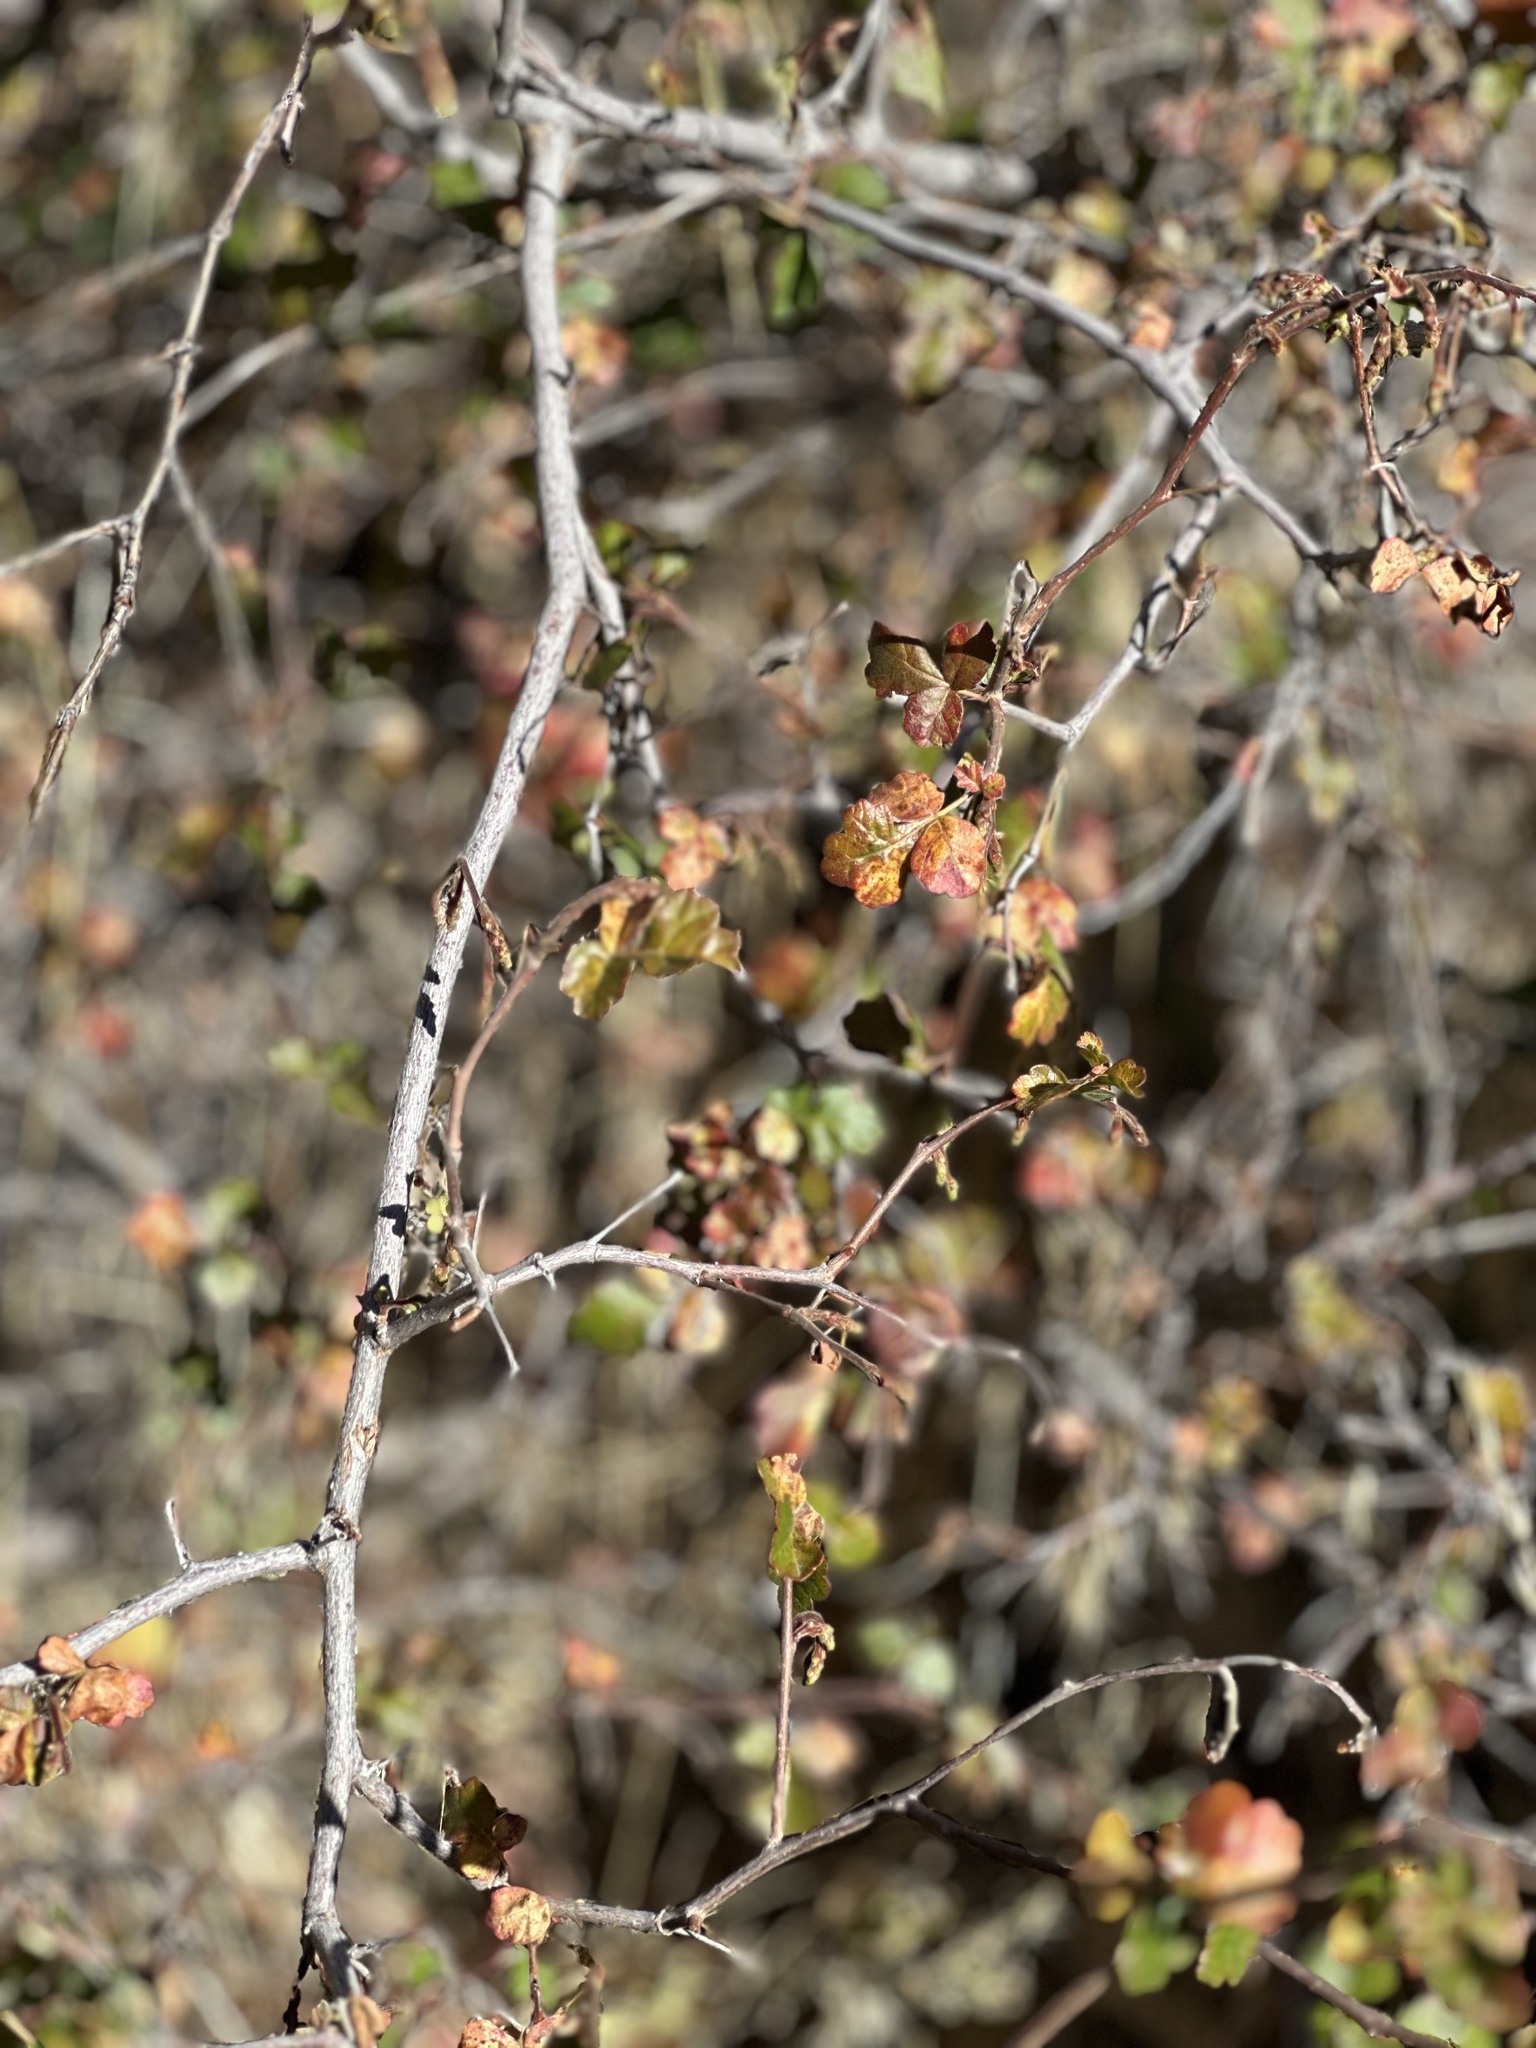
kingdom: Plantae
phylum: Tracheophyta
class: Magnoliopsida
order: Sapindales
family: Anacardiaceae
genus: Rhus
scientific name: Rhus aromatica
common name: Aromatic sumac
